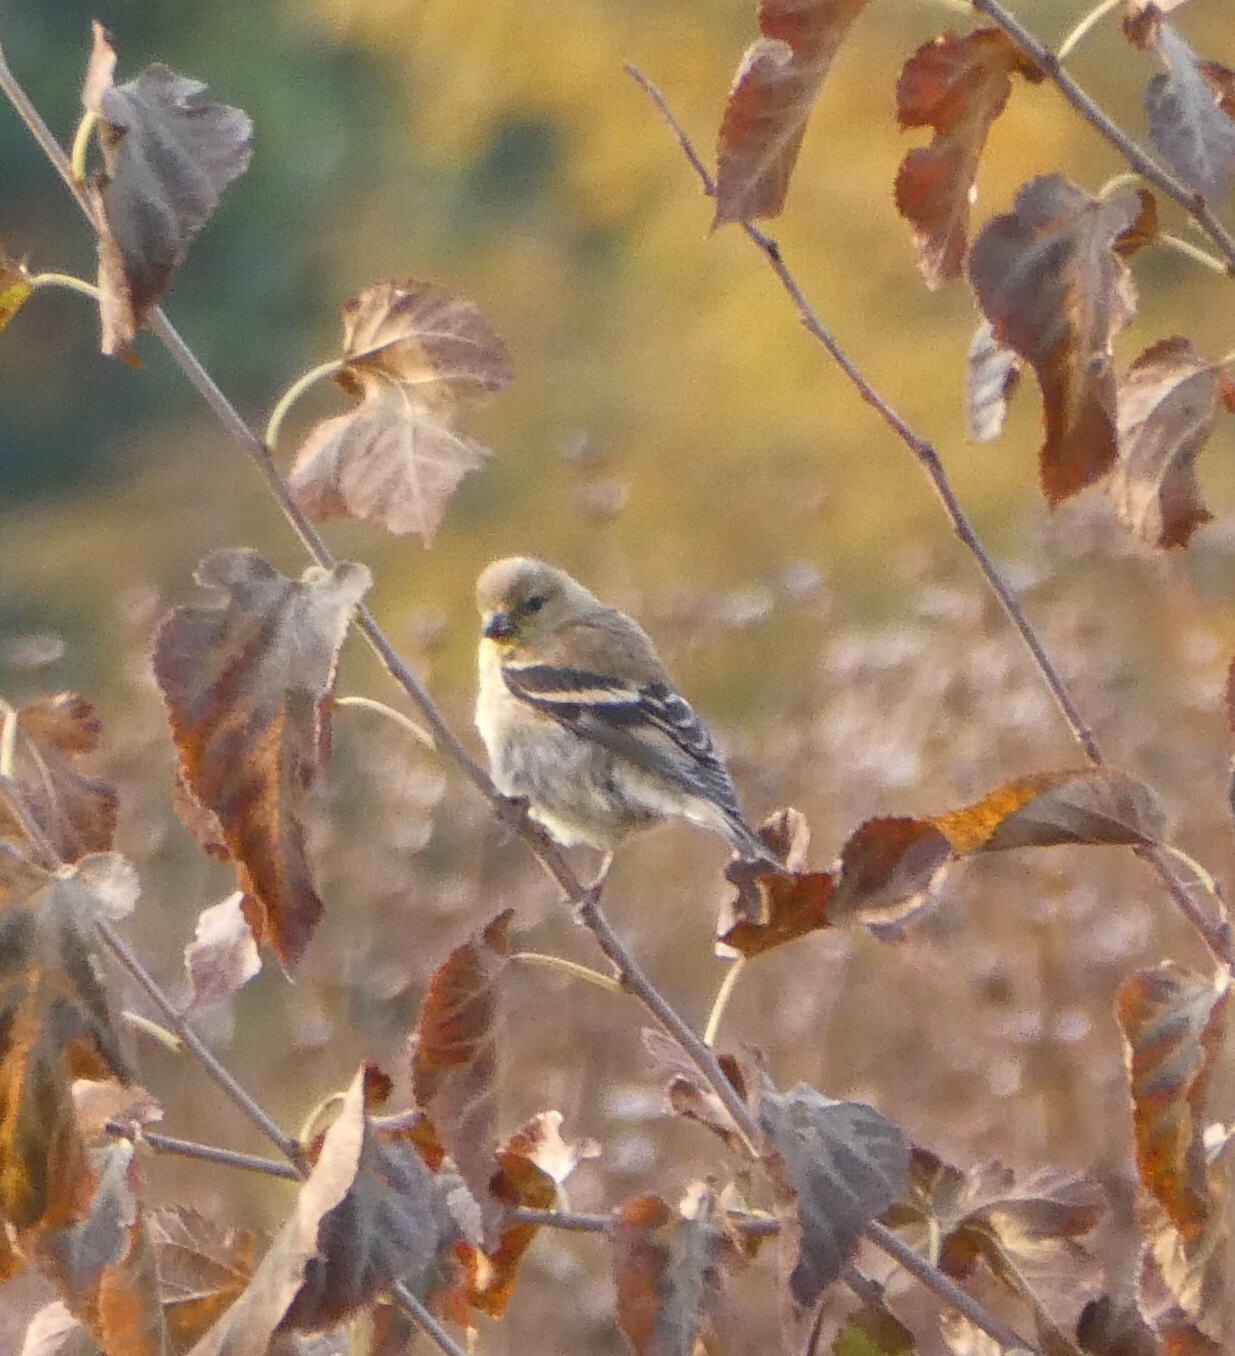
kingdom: Animalia
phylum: Chordata
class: Aves
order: Passeriformes
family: Fringillidae
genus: Spinus
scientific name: Spinus tristis
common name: American goldfinch
